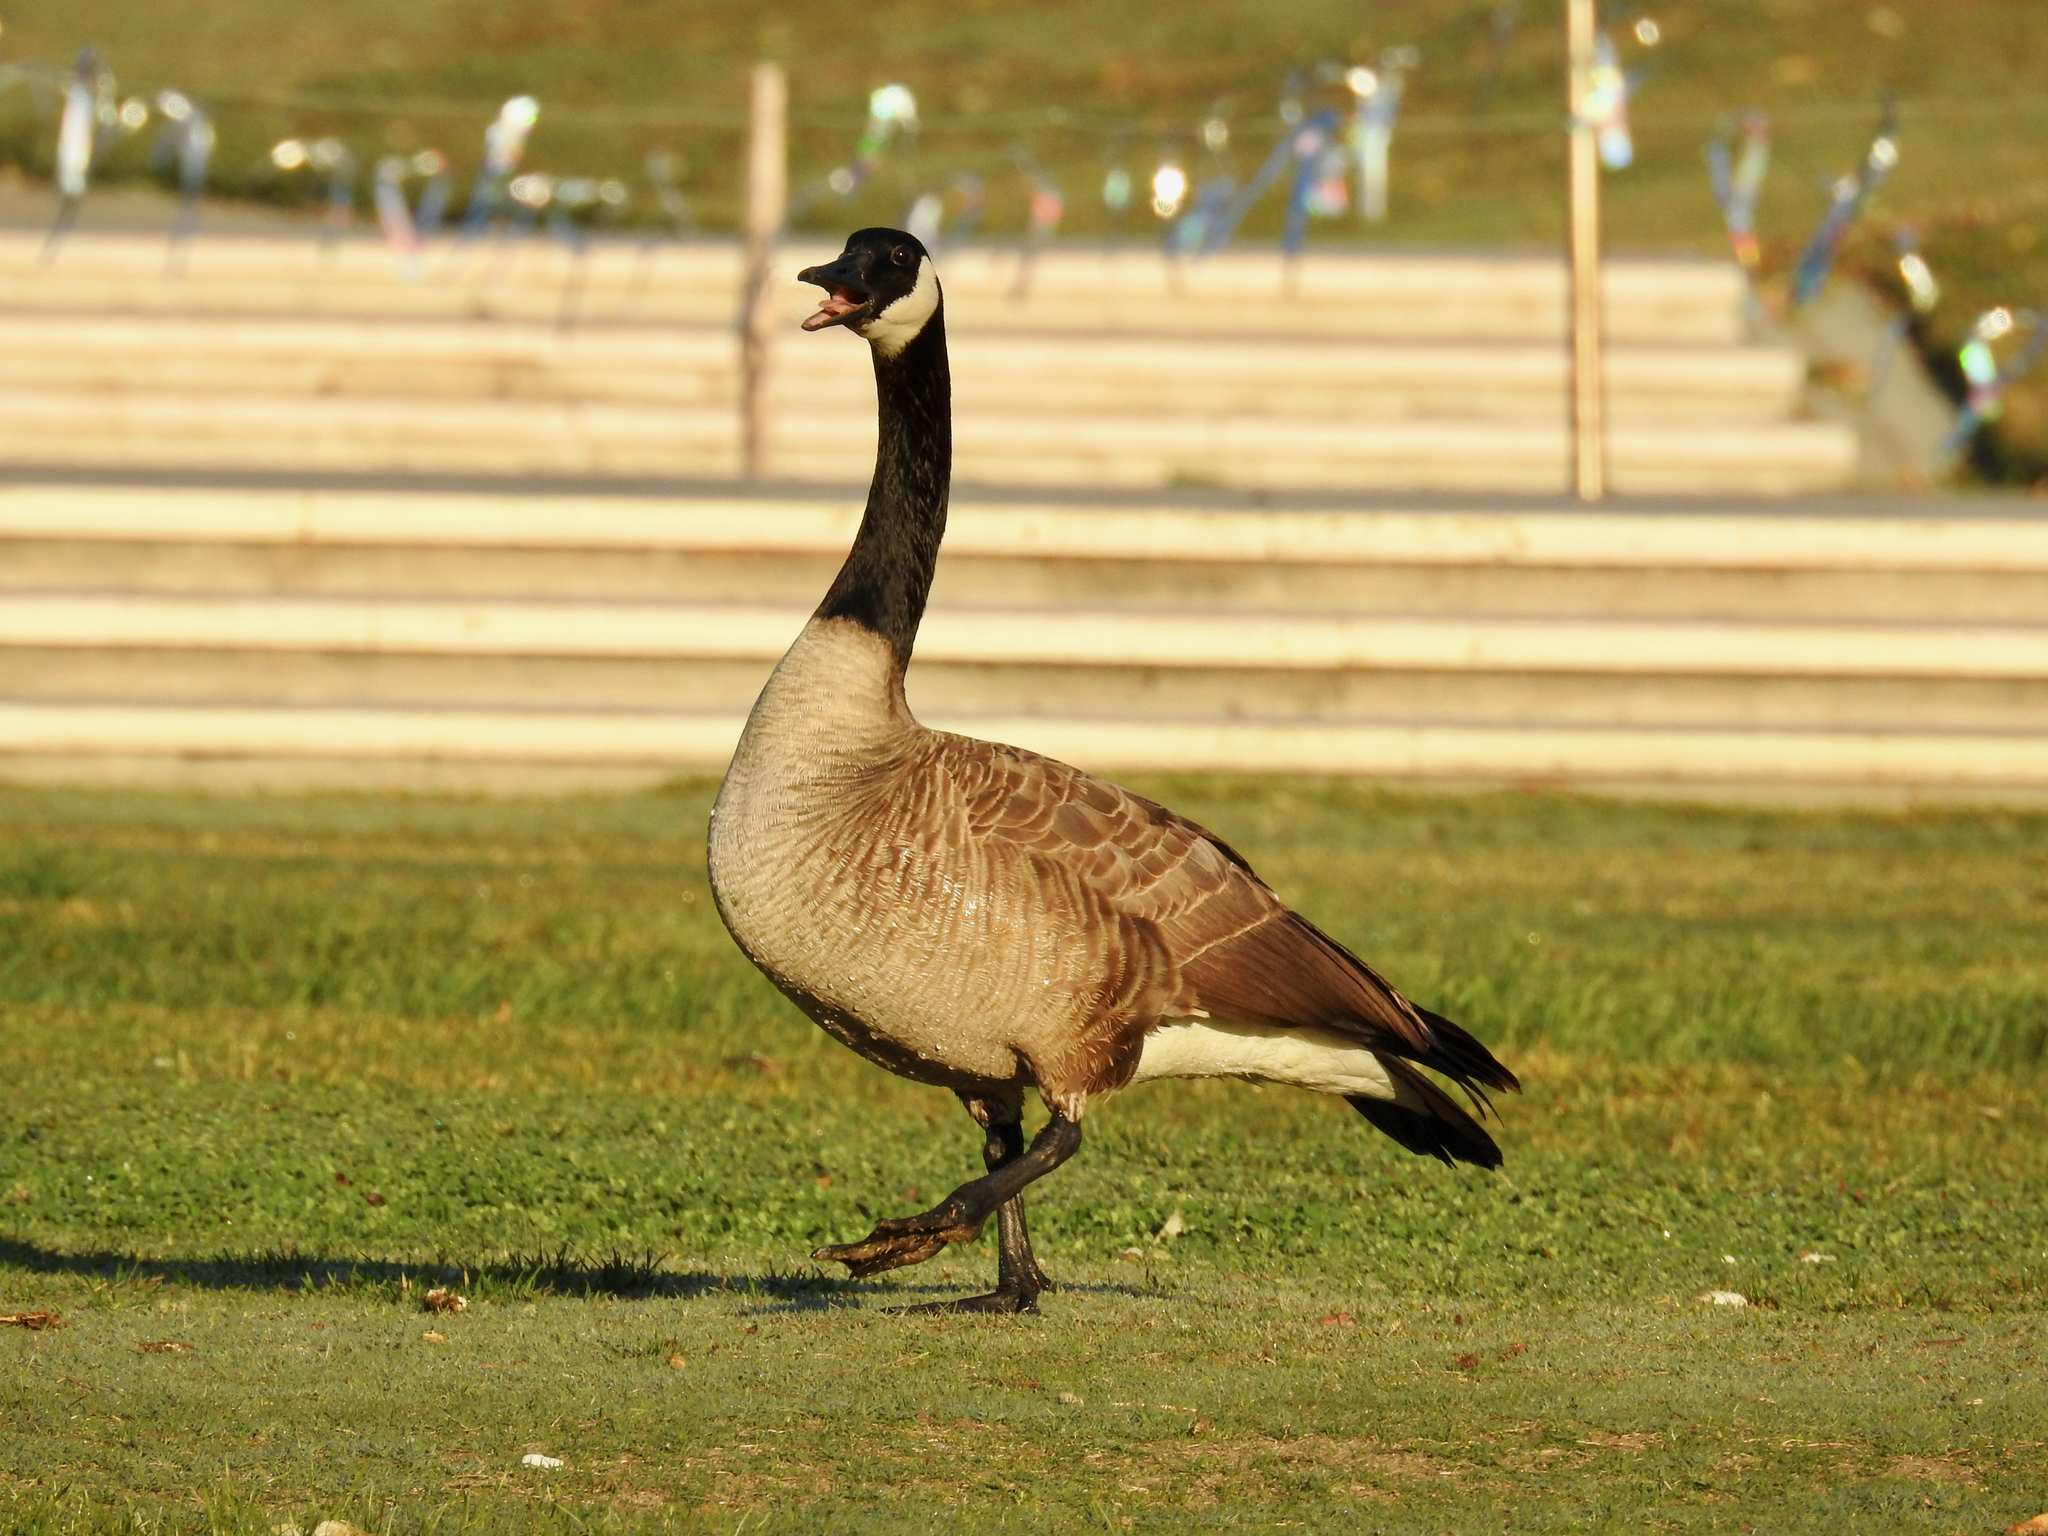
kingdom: Animalia
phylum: Chordata
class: Aves
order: Anseriformes
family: Anatidae
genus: Branta
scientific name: Branta canadensis
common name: Canada goose
